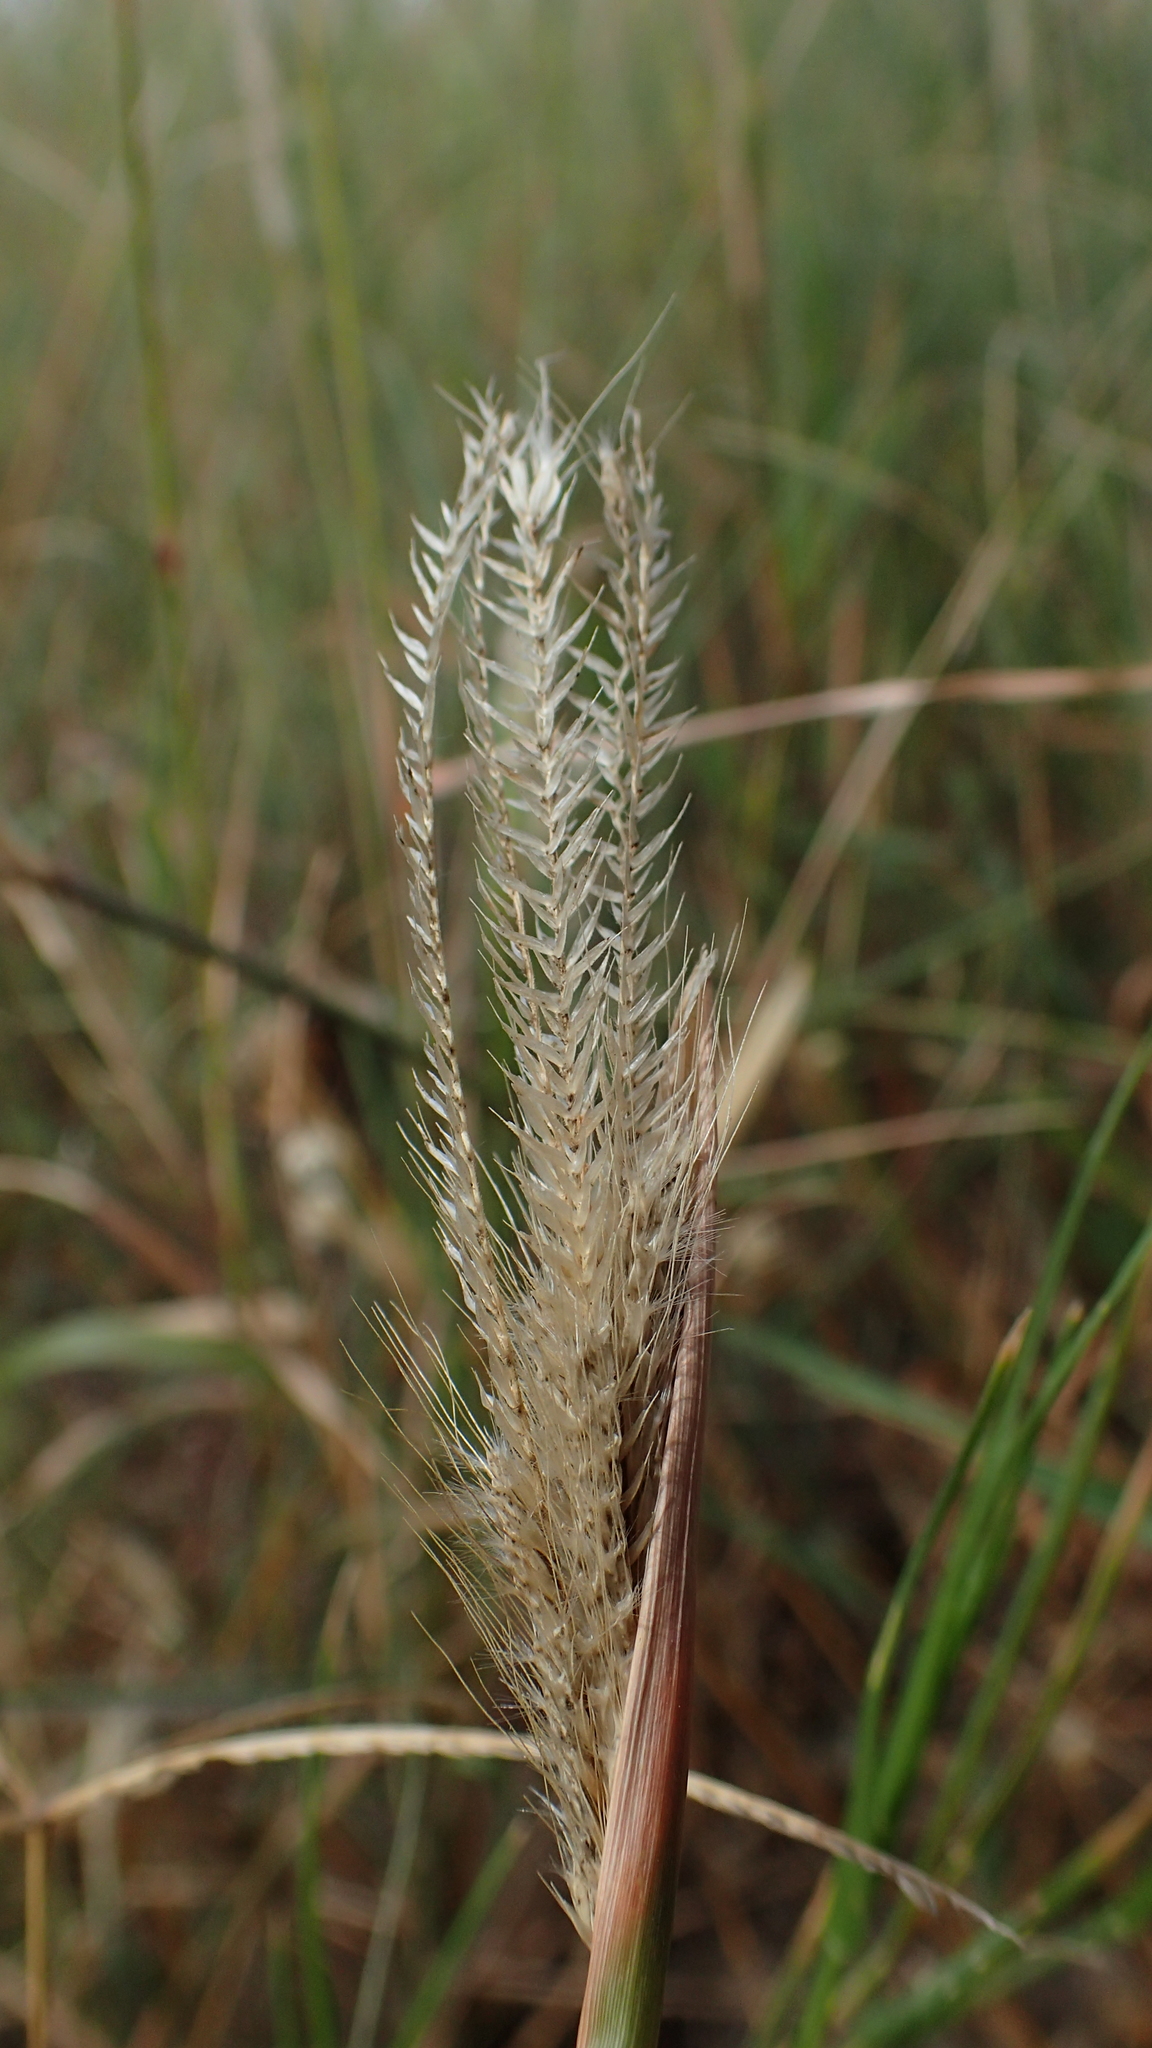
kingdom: Plantae
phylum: Tracheophyta
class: Liliopsida
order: Poales
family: Poaceae
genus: Enteropogon
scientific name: Enteropogon prieurii
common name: Prieur's umbrellagrass
